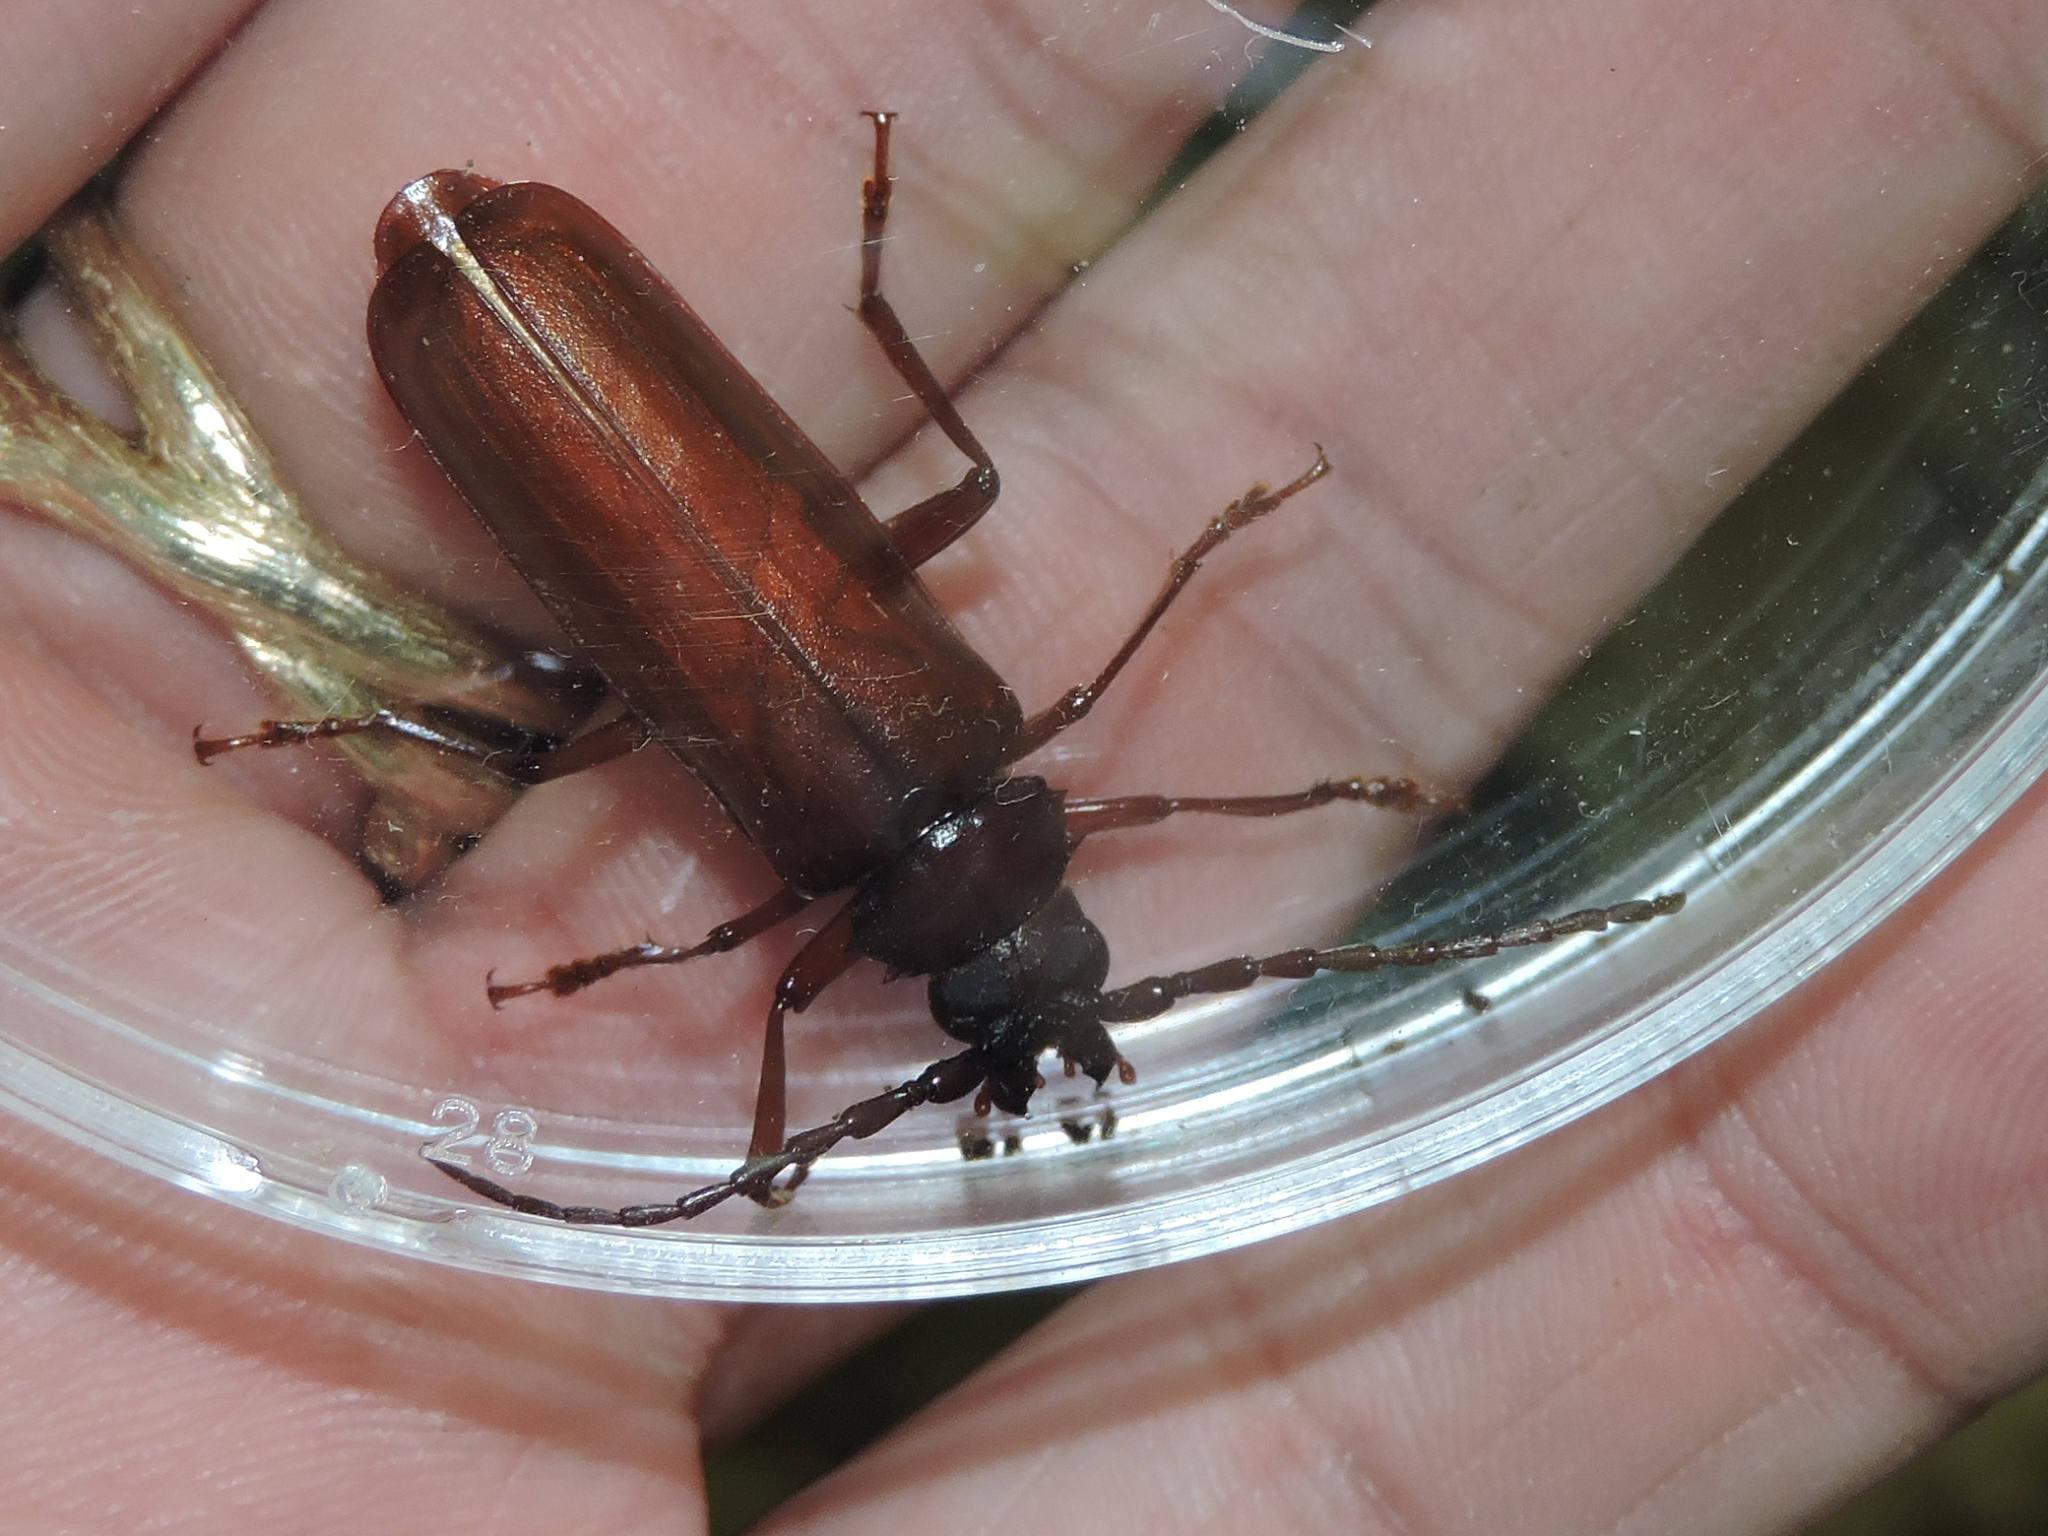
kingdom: Animalia
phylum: Arthropoda
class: Insecta
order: Coleoptera
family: Cerambycidae
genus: Orthosoma
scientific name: Orthosoma brunneum
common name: Brown prionid beetle
